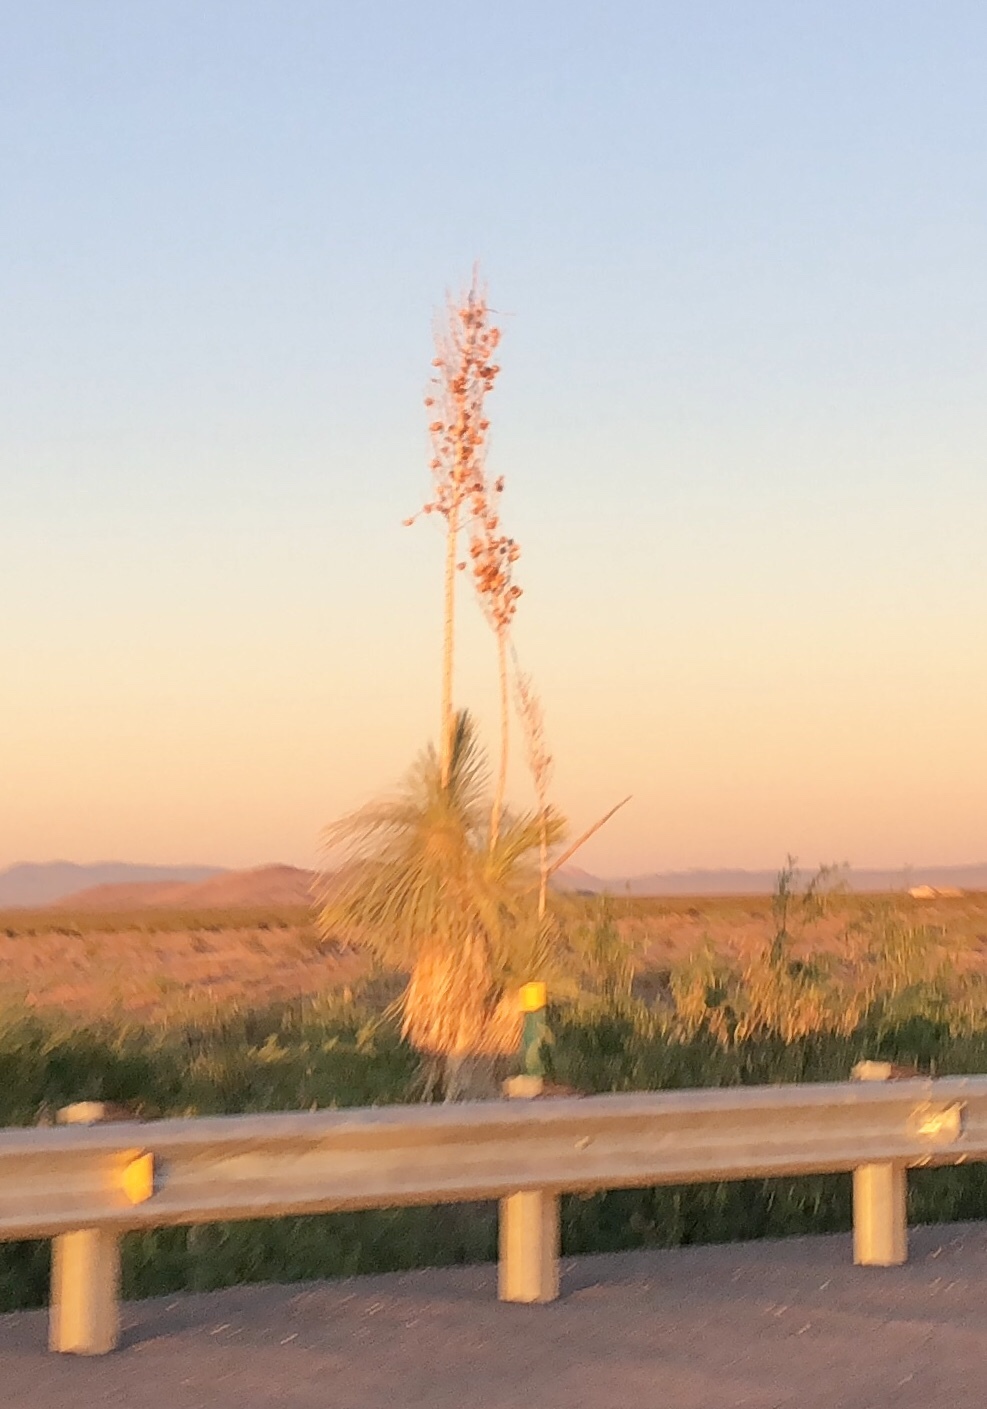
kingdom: Plantae
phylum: Tracheophyta
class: Liliopsida
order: Asparagales
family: Asparagaceae
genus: Yucca
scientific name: Yucca elata
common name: Palmella
